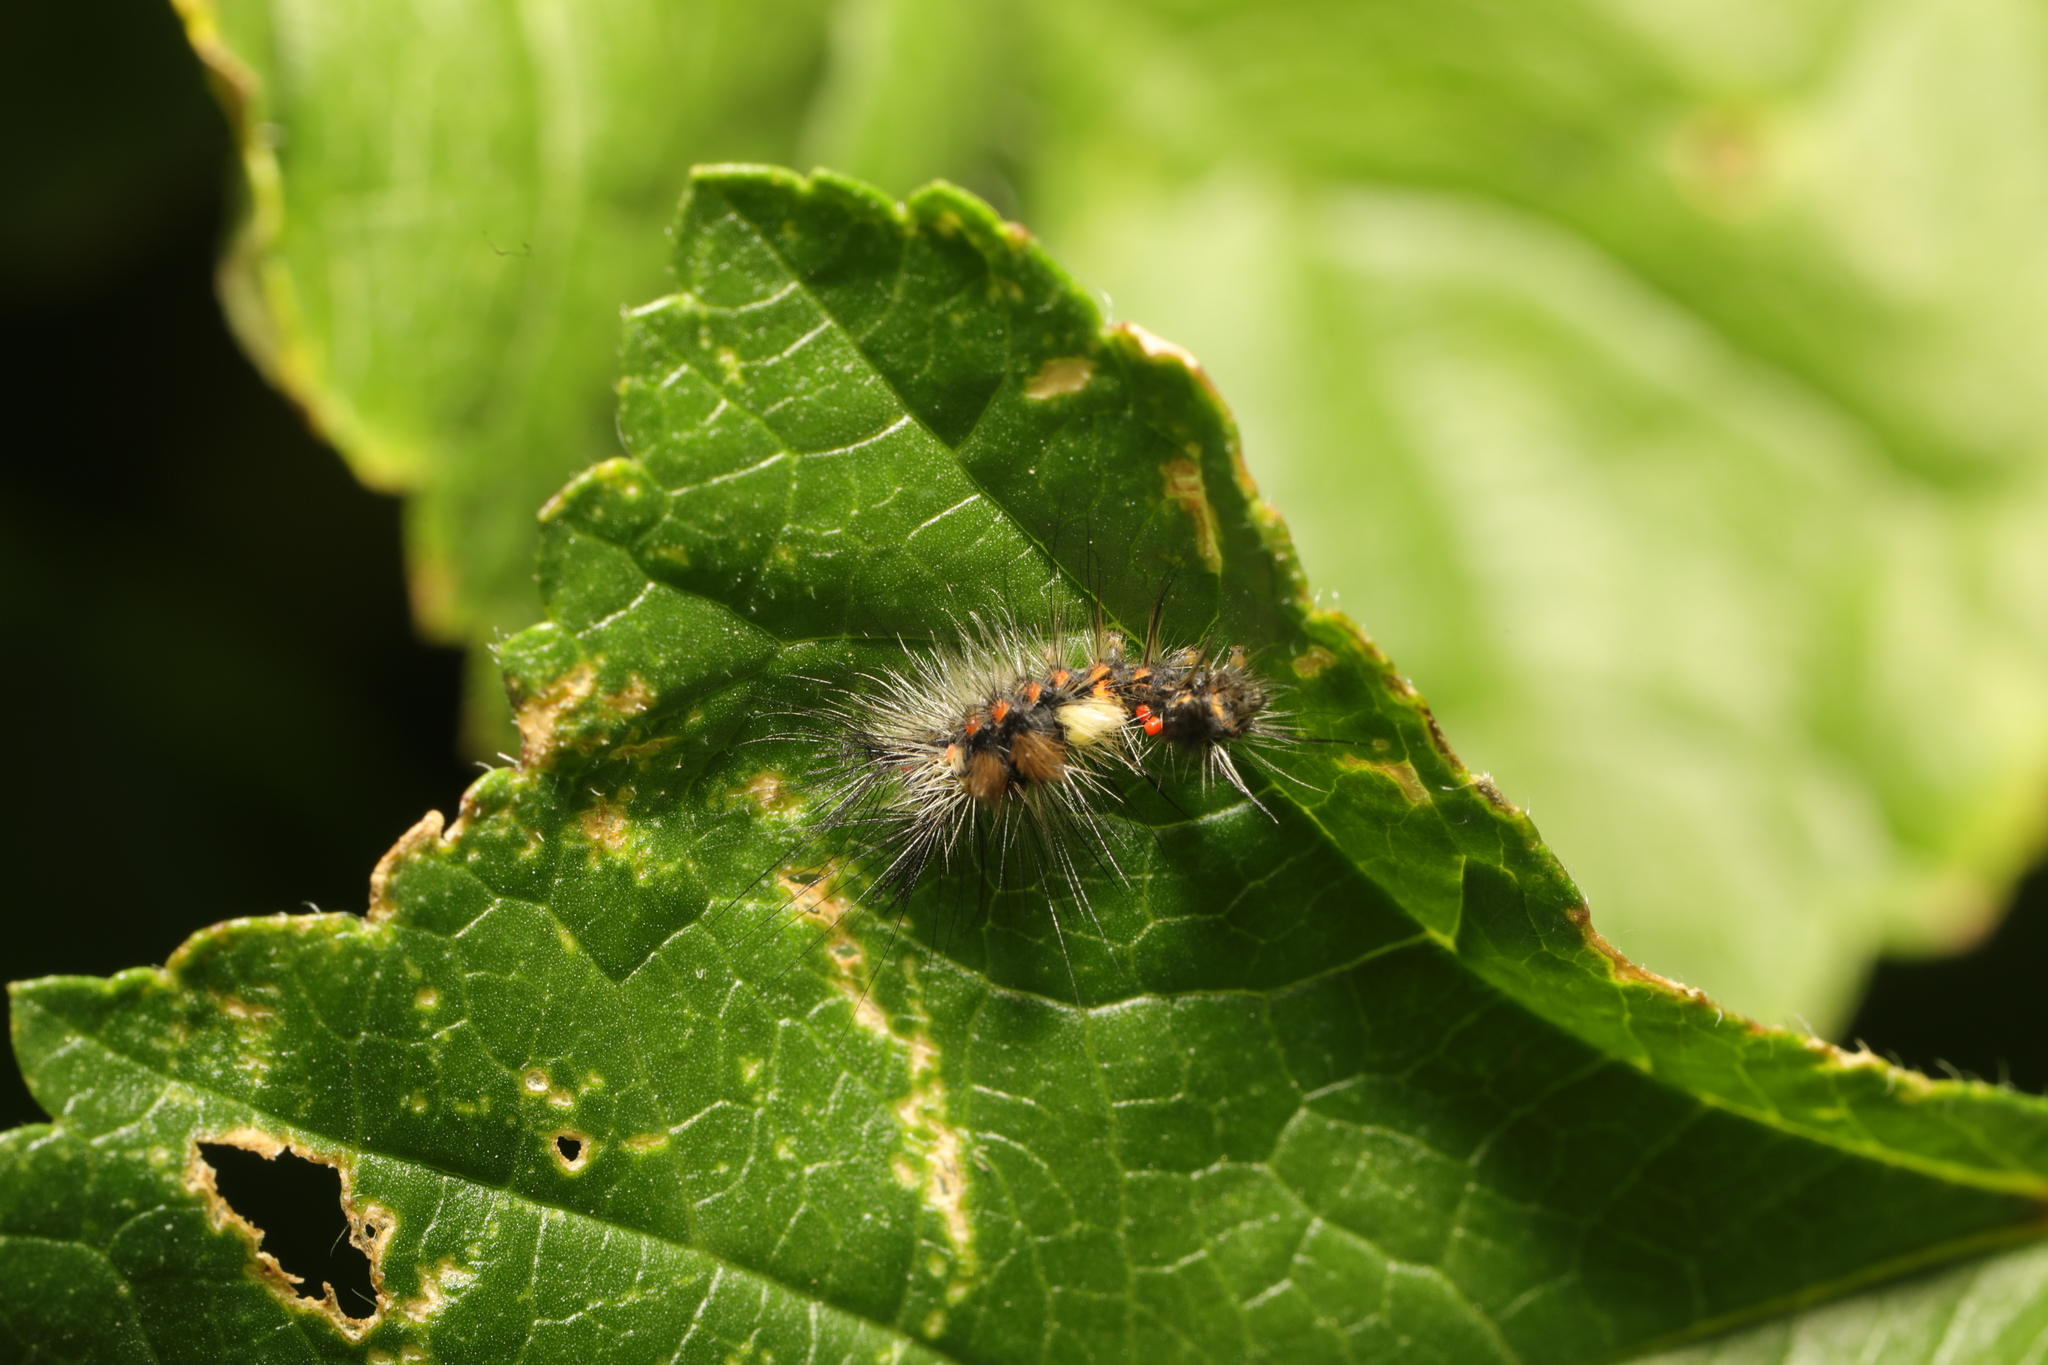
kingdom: Animalia
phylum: Arthropoda
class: Insecta
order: Lepidoptera
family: Erebidae
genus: Orgyia
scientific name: Orgyia antiqua
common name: Vapourer
